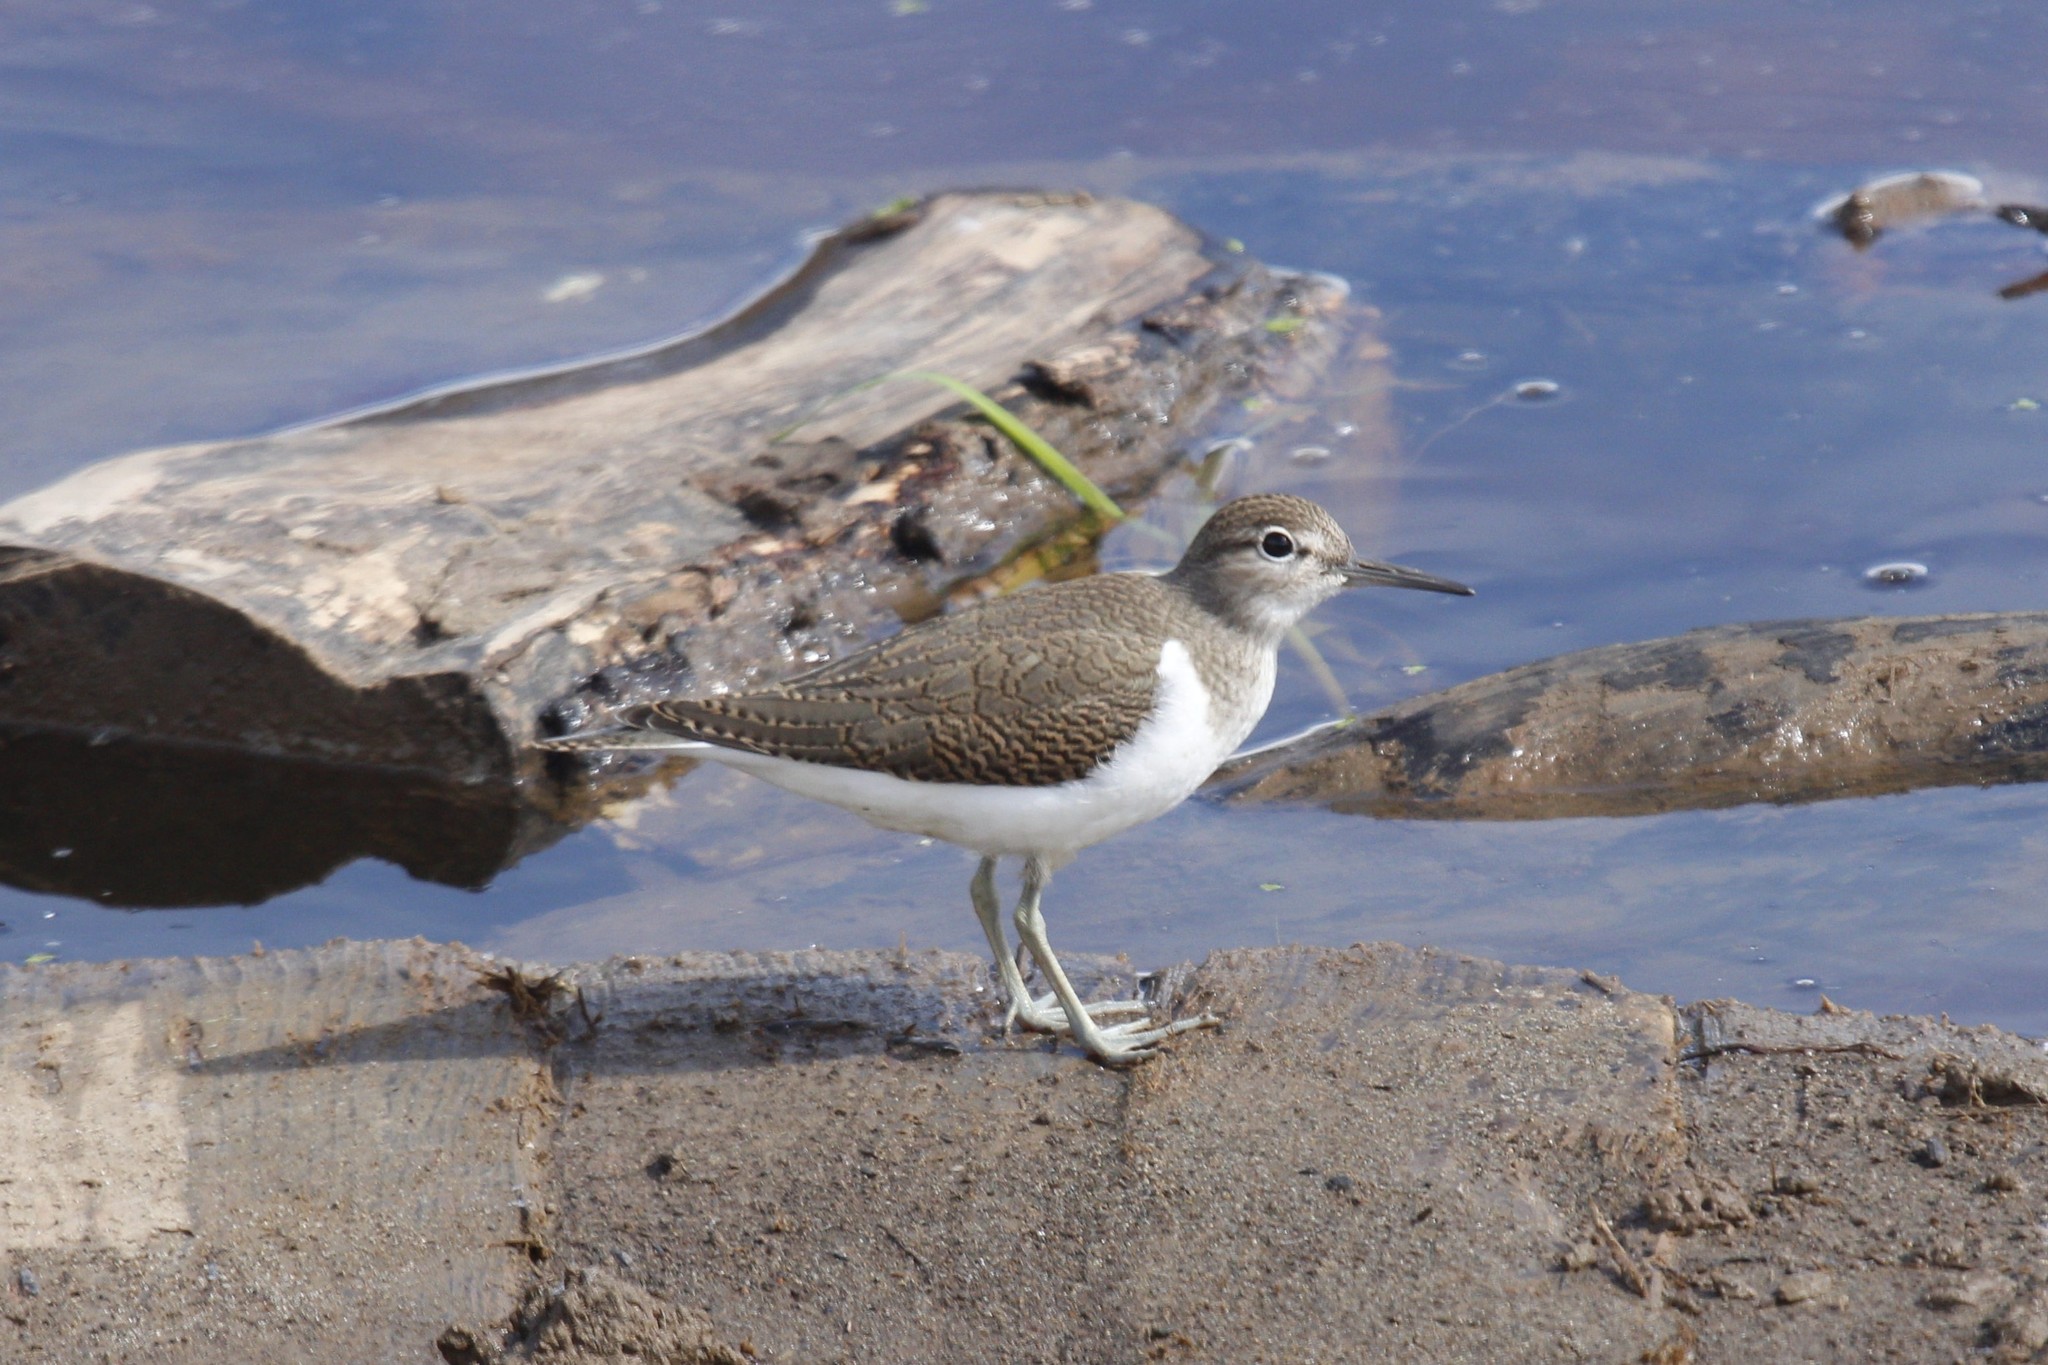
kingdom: Animalia
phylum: Chordata
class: Aves
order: Charadriiformes
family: Scolopacidae
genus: Actitis
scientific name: Actitis hypoleucos
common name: Common sandpiper
